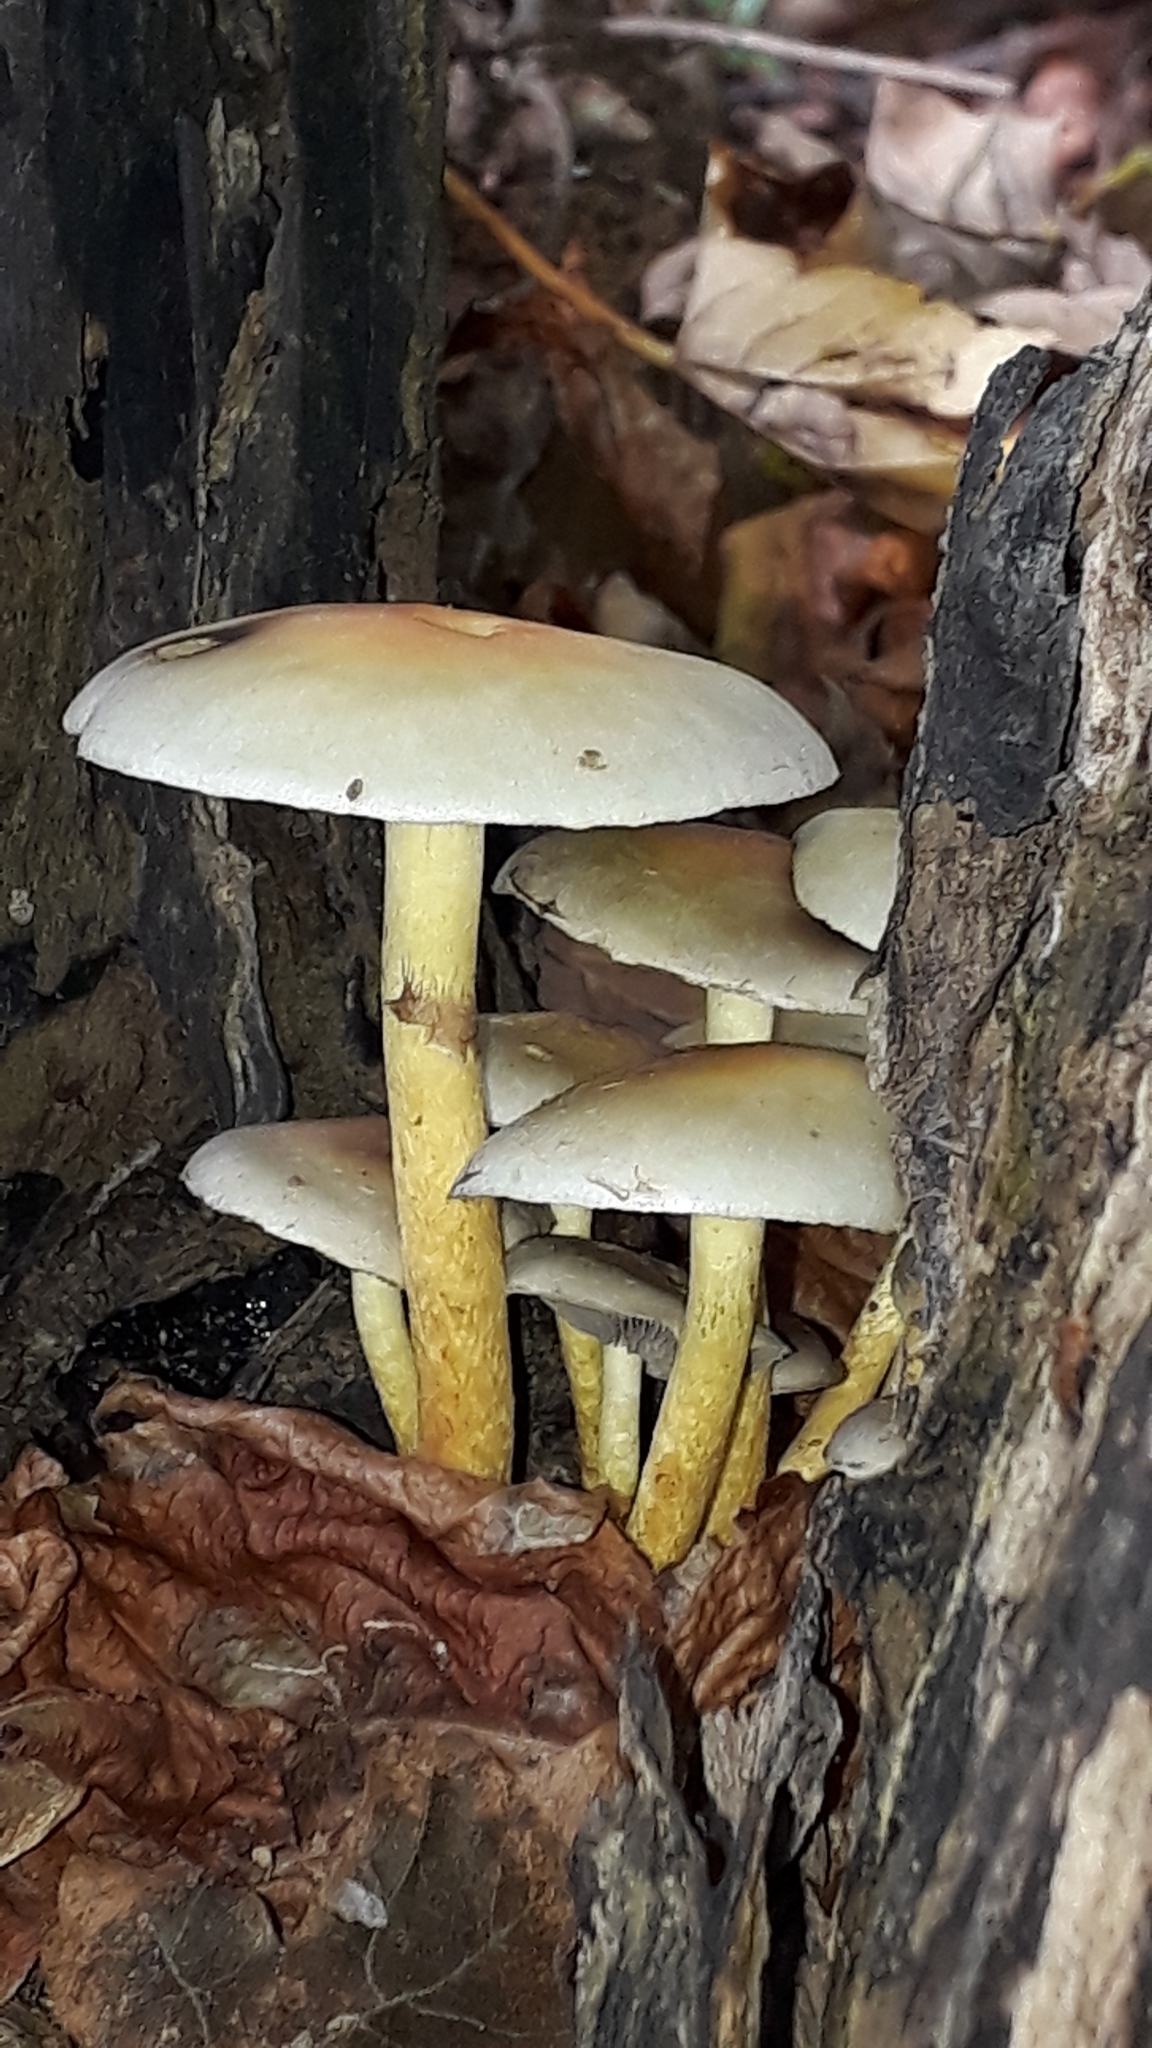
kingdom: Fungi
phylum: Basidiomycota
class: Agaricomycetes
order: Agaricales
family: Strophariaceae
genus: Hypholoma
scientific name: Hypholoma fasciculare
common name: Sulphur tuft
